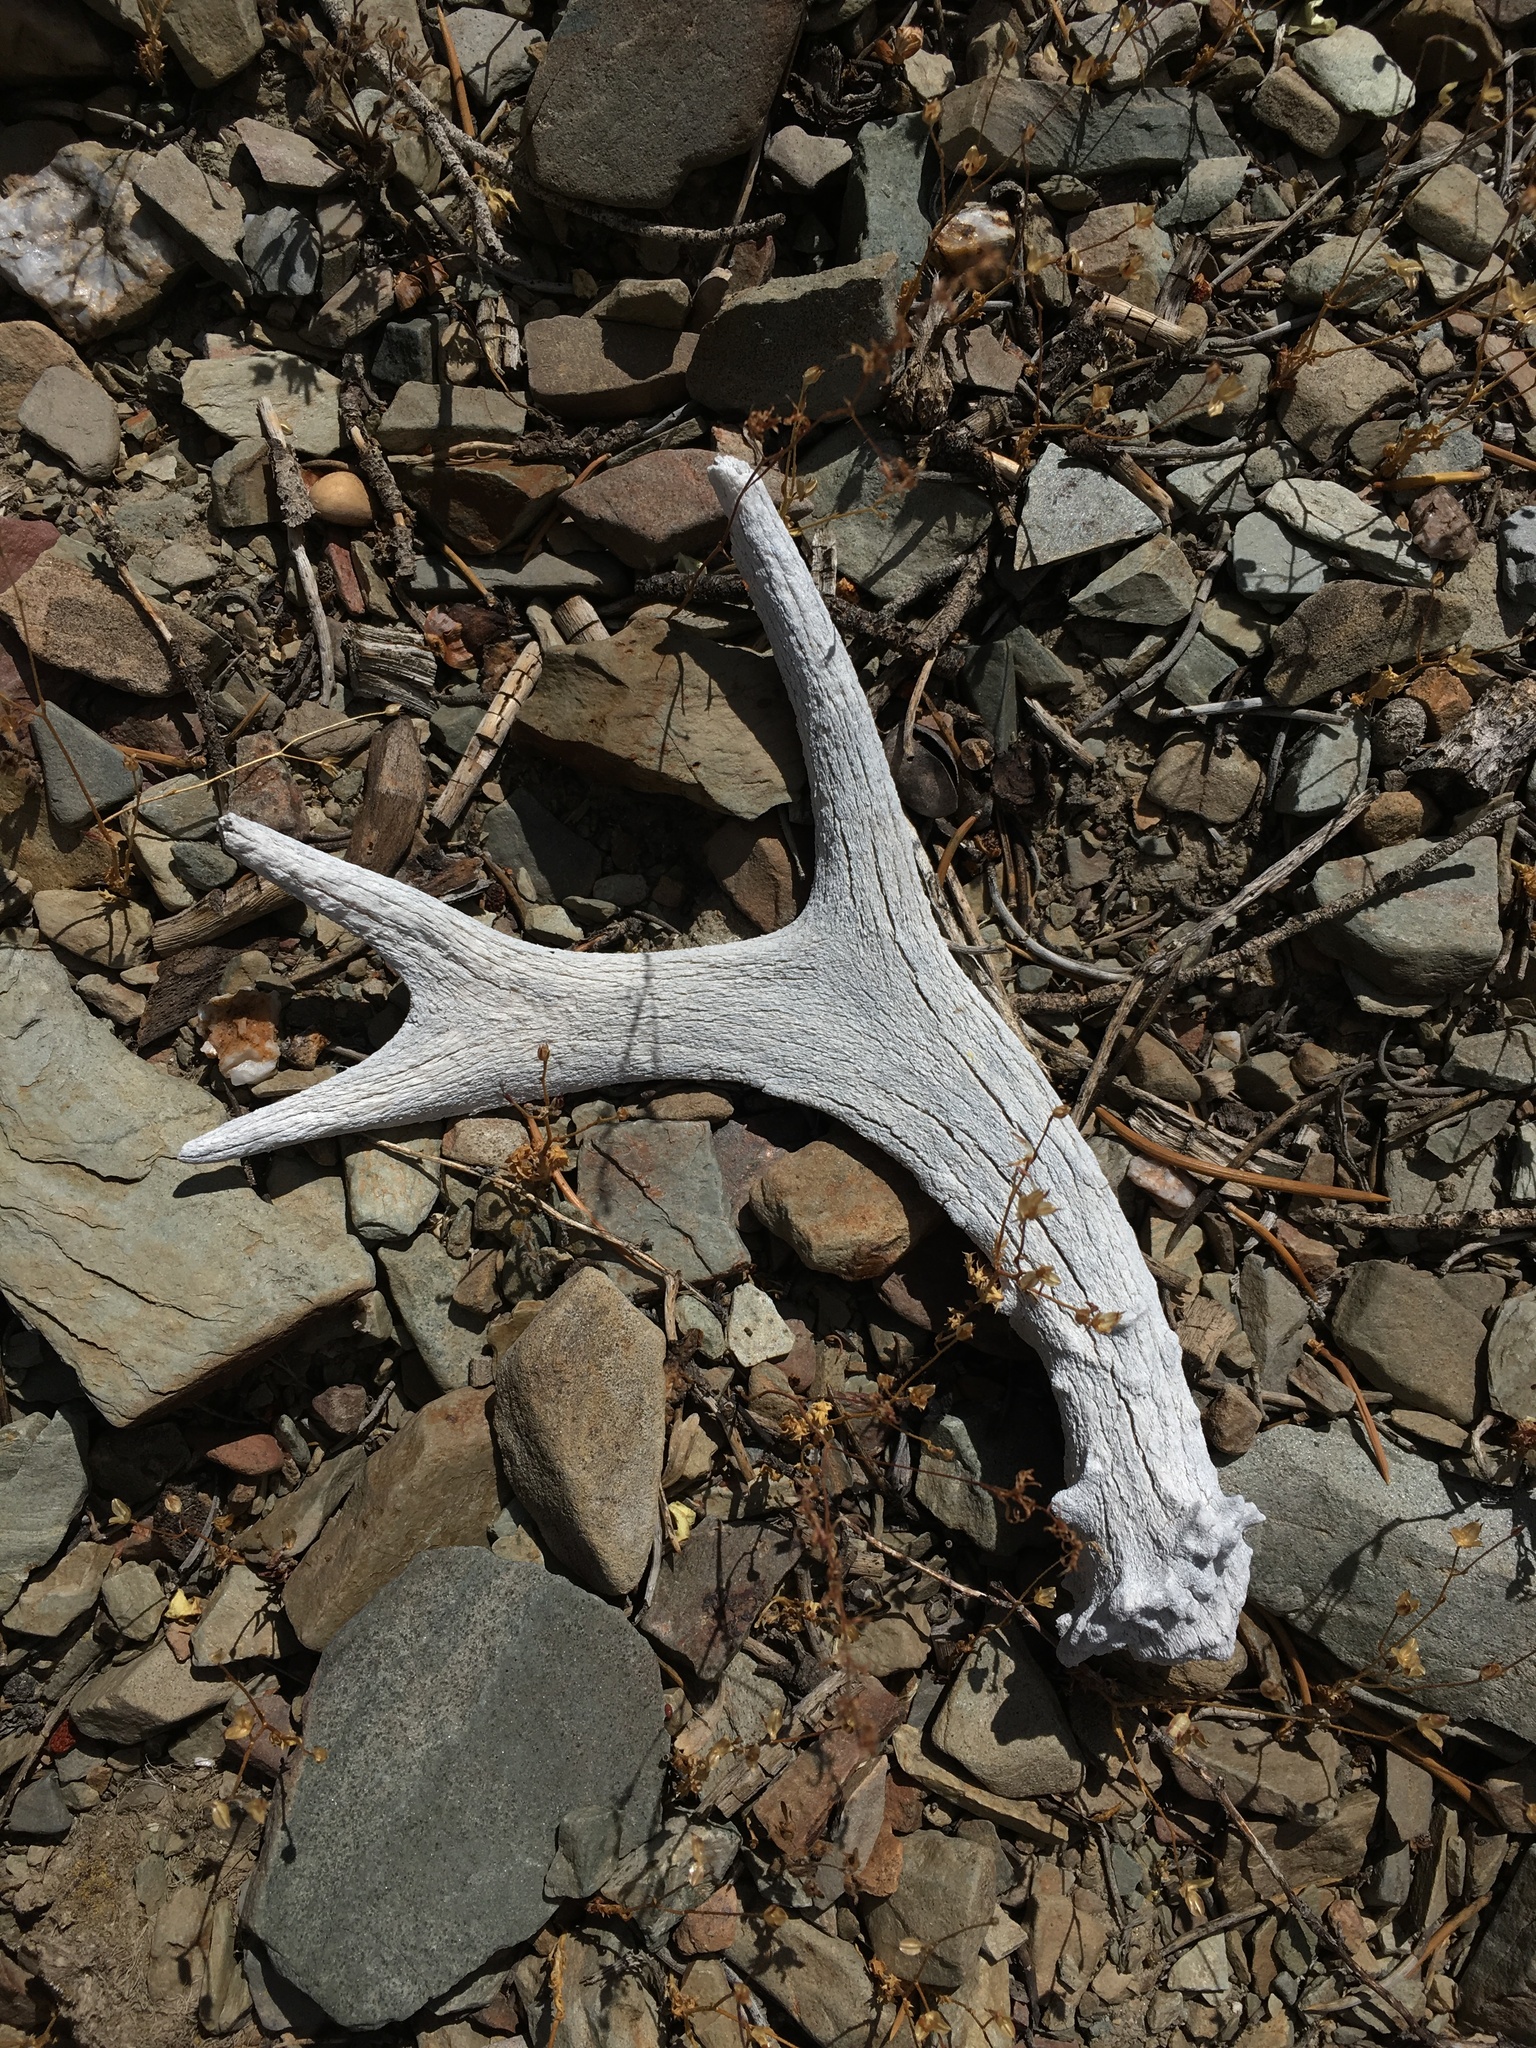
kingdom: Animalia
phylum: Chordata
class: Mammalia
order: Artiodactyla
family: Cervidae
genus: Odocoileus
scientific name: Odocoileus hemionus
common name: Mule deer
